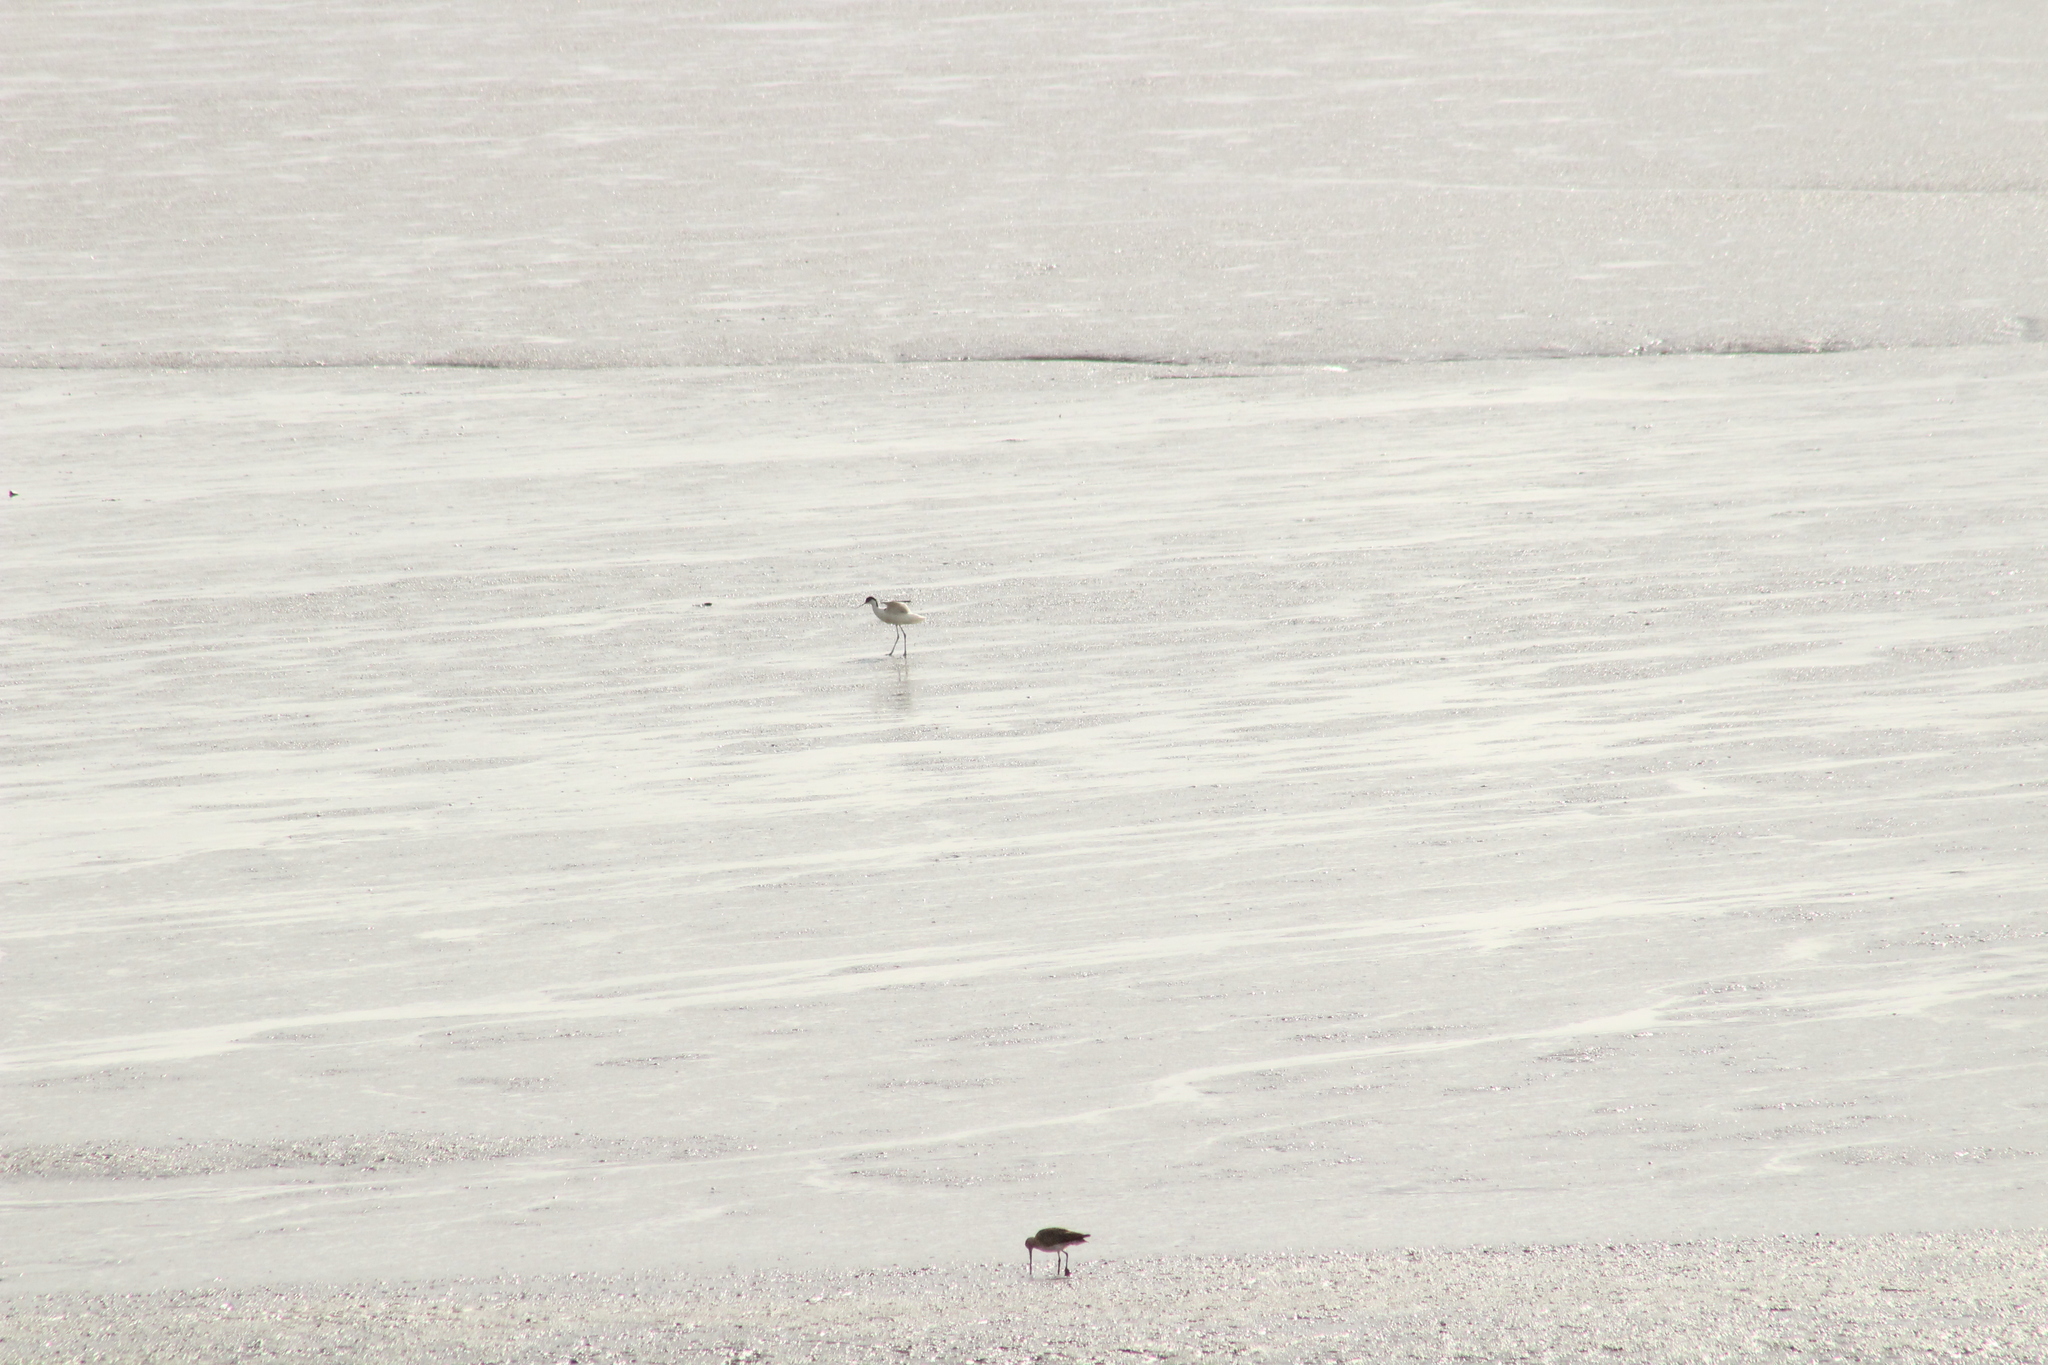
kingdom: Animalia
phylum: Chordata
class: Aves
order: Charadriiformes
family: Recurvirostridae
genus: Recurvirostra
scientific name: Recurvirostra avosetta
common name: Pied avocet
